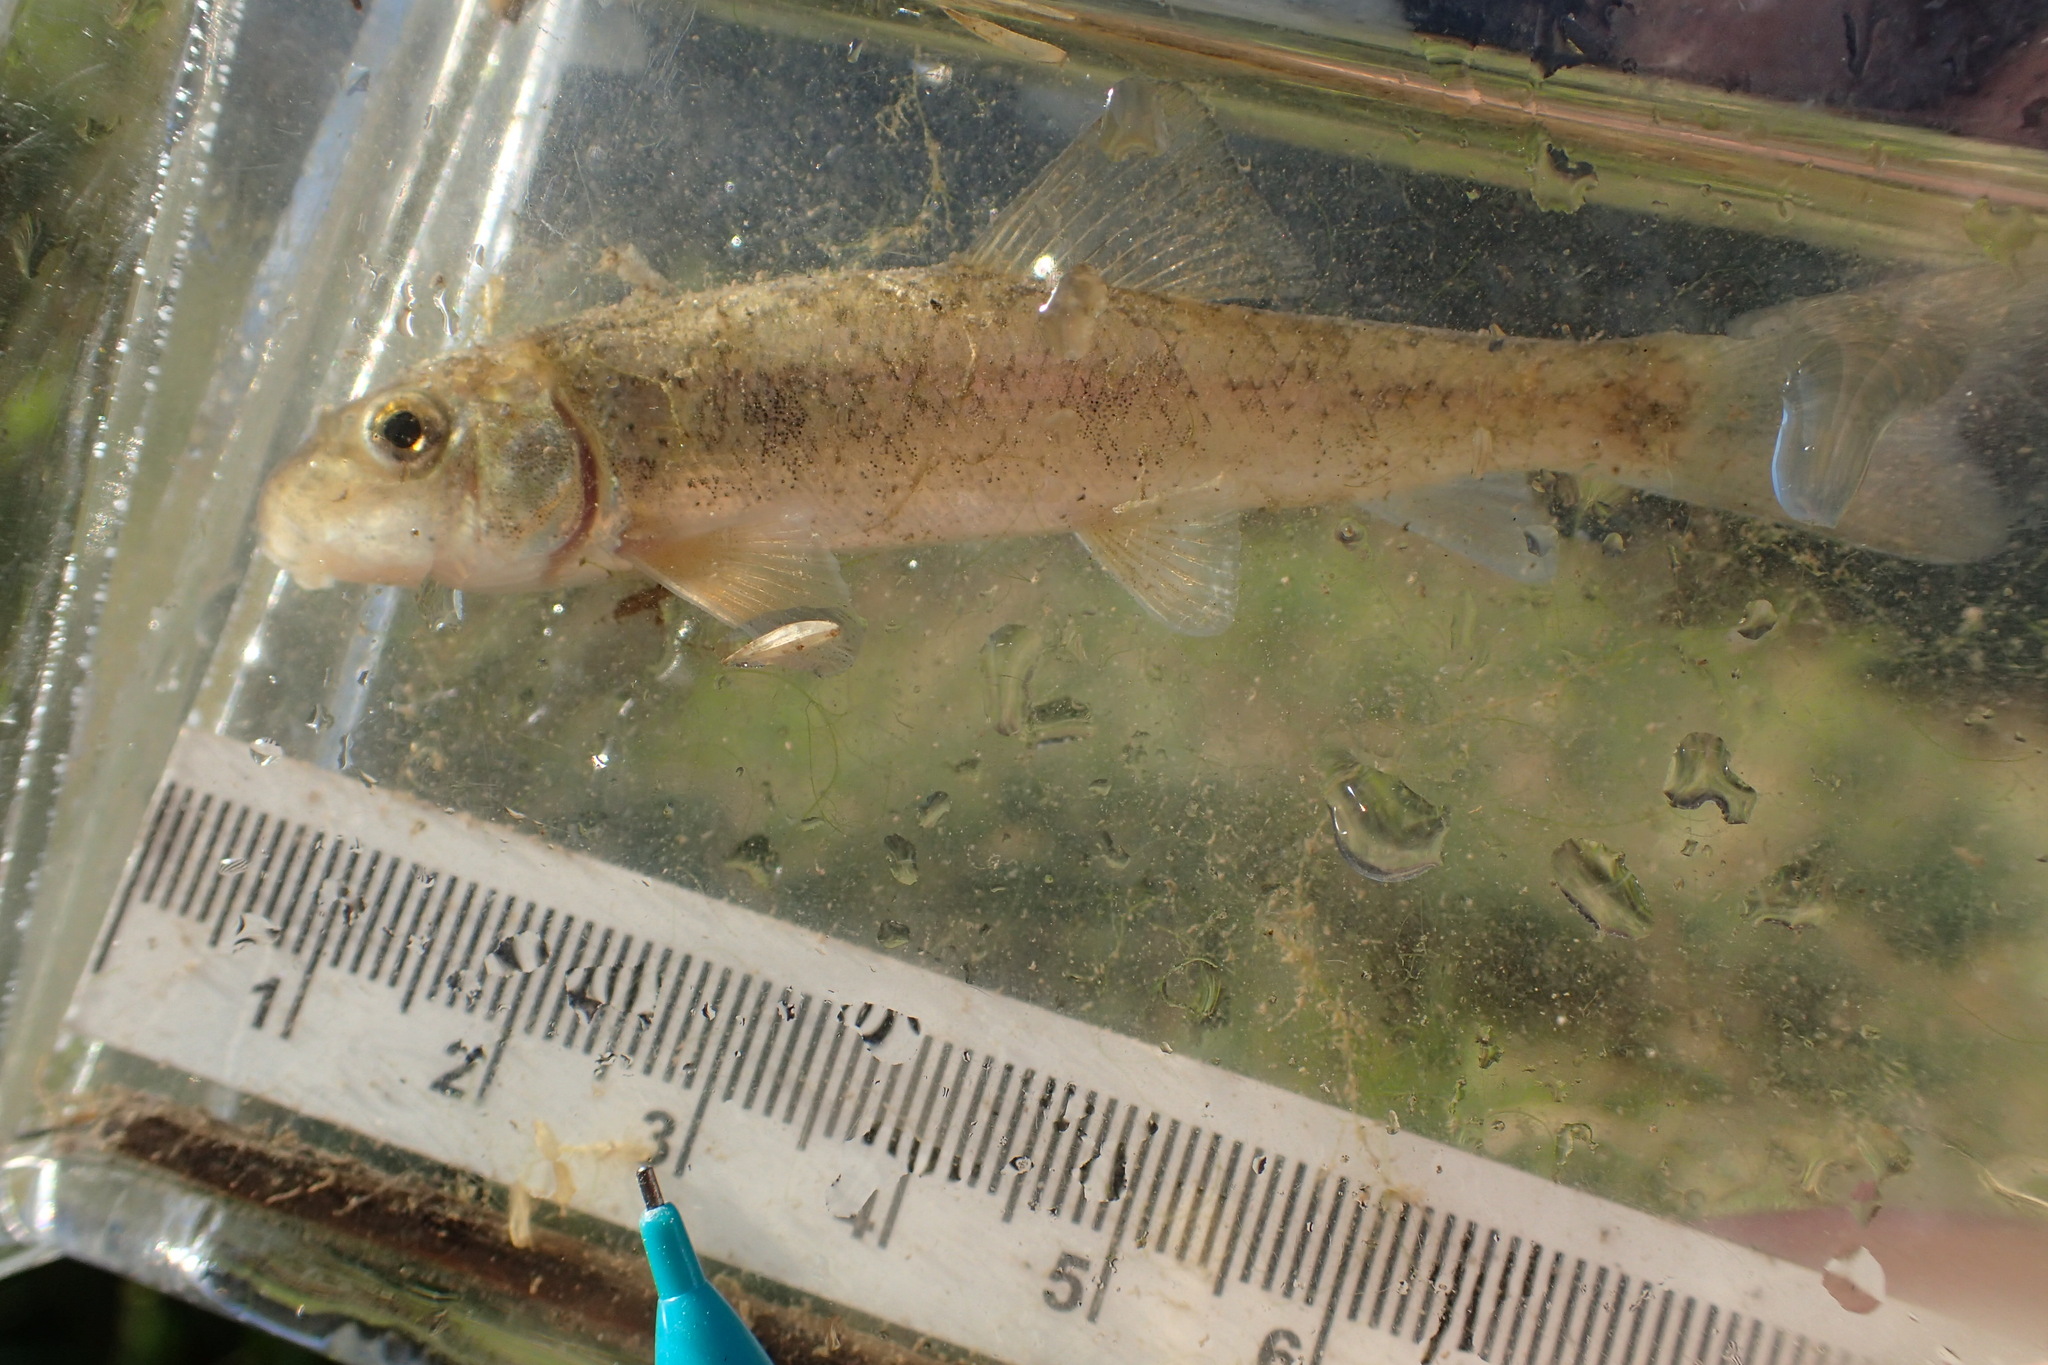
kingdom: Animalia
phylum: Chordata
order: Cypriniformes
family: Catostomidae
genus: Catostomus
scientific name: Catostomus commersonii
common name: White sucker
